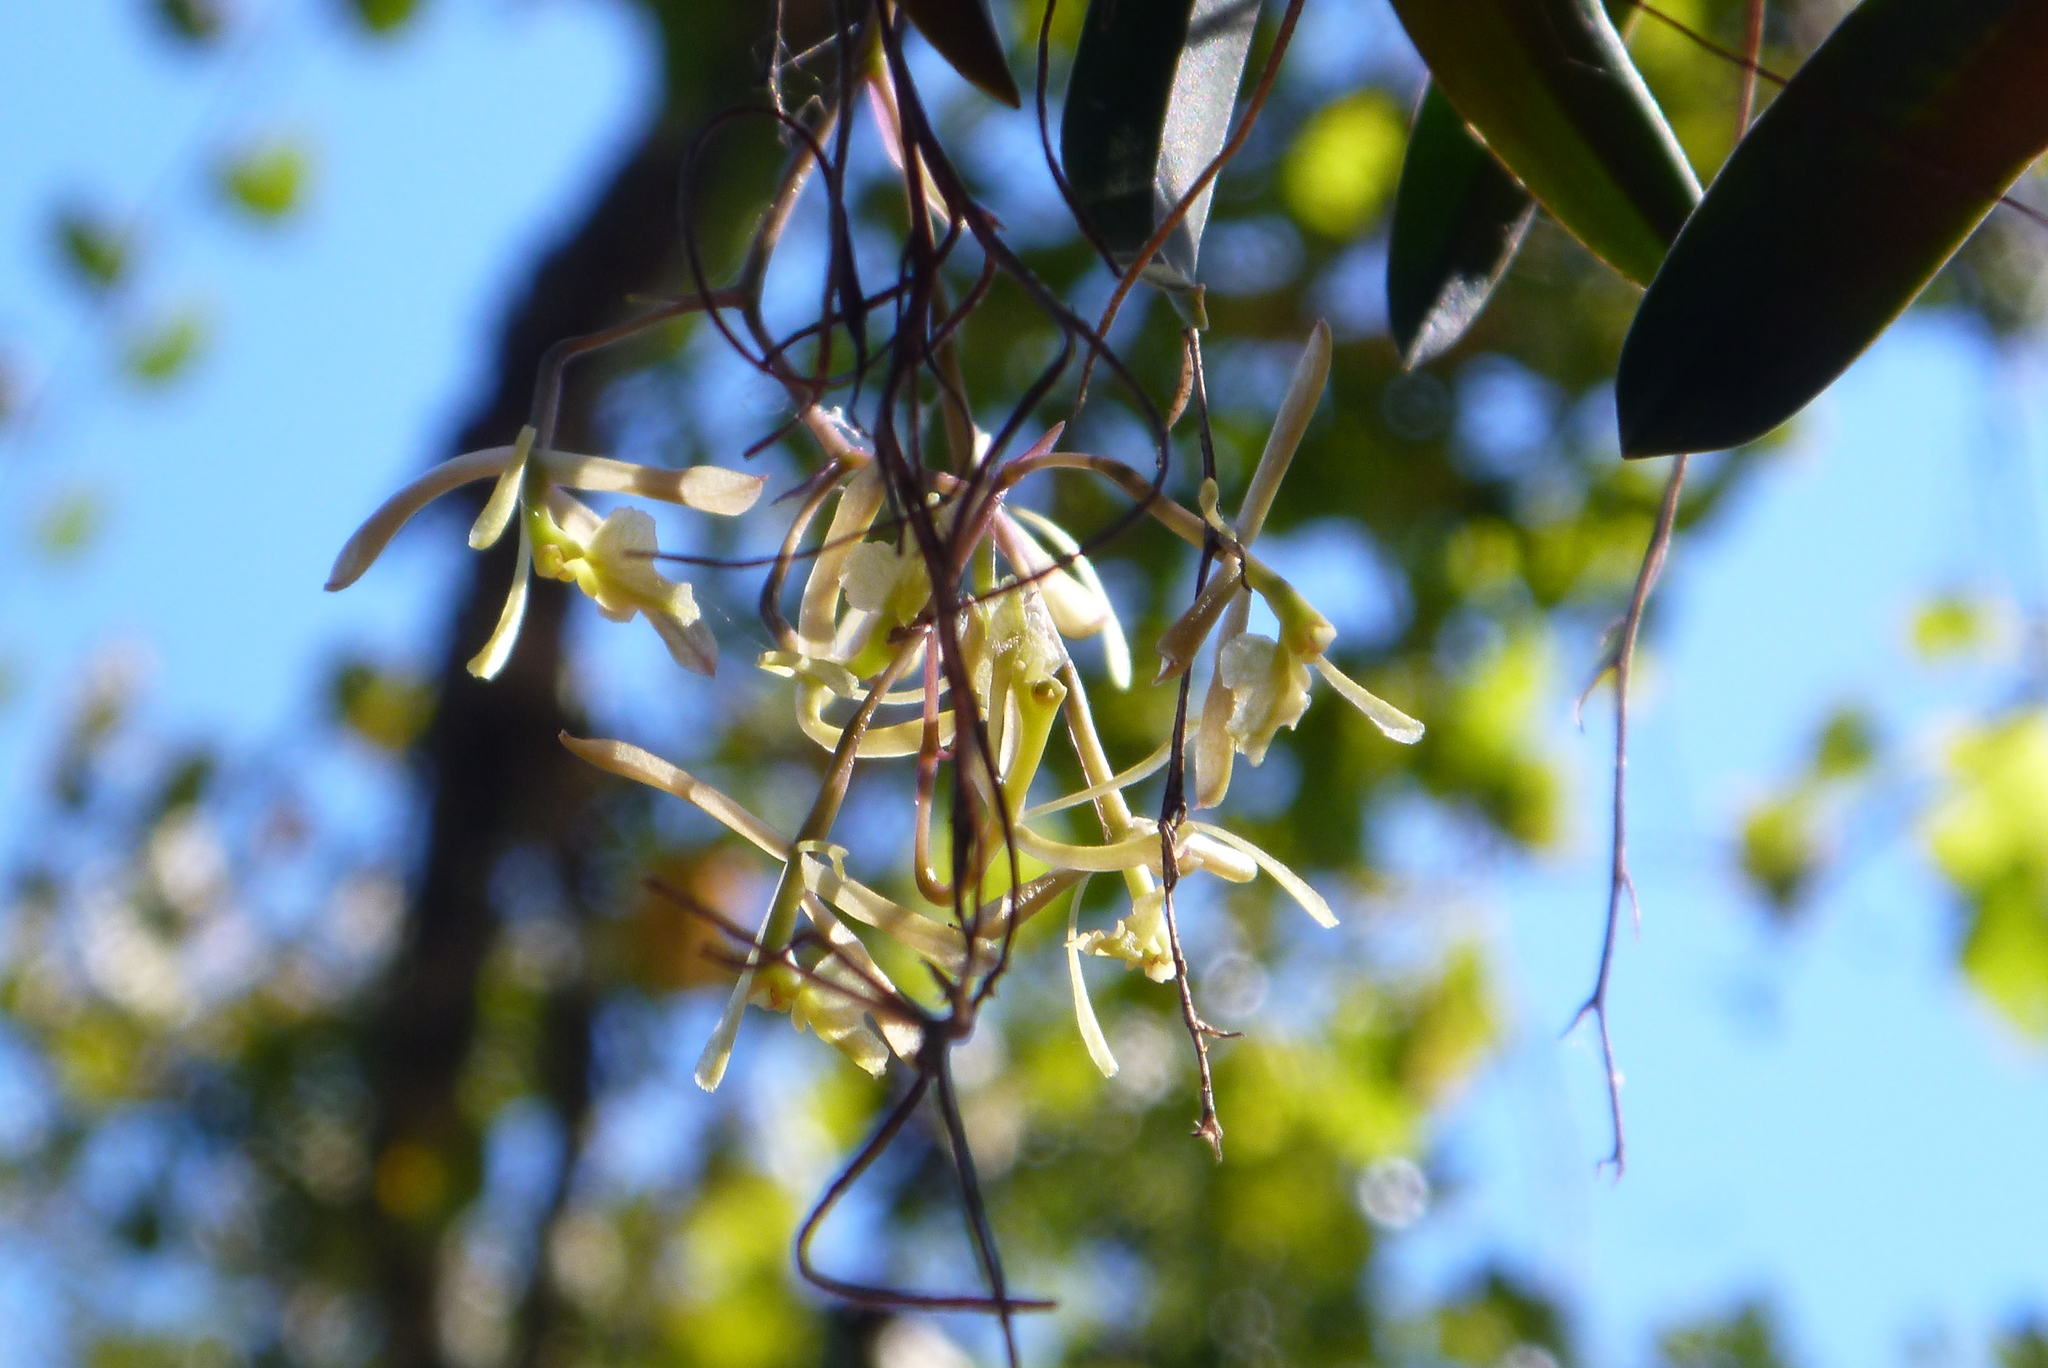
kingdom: Plantae
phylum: Tracheophyta
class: Liliopsida
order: Asparagales
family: Orchidaceae
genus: Epidendrum
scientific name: Epidendrum conopseum
